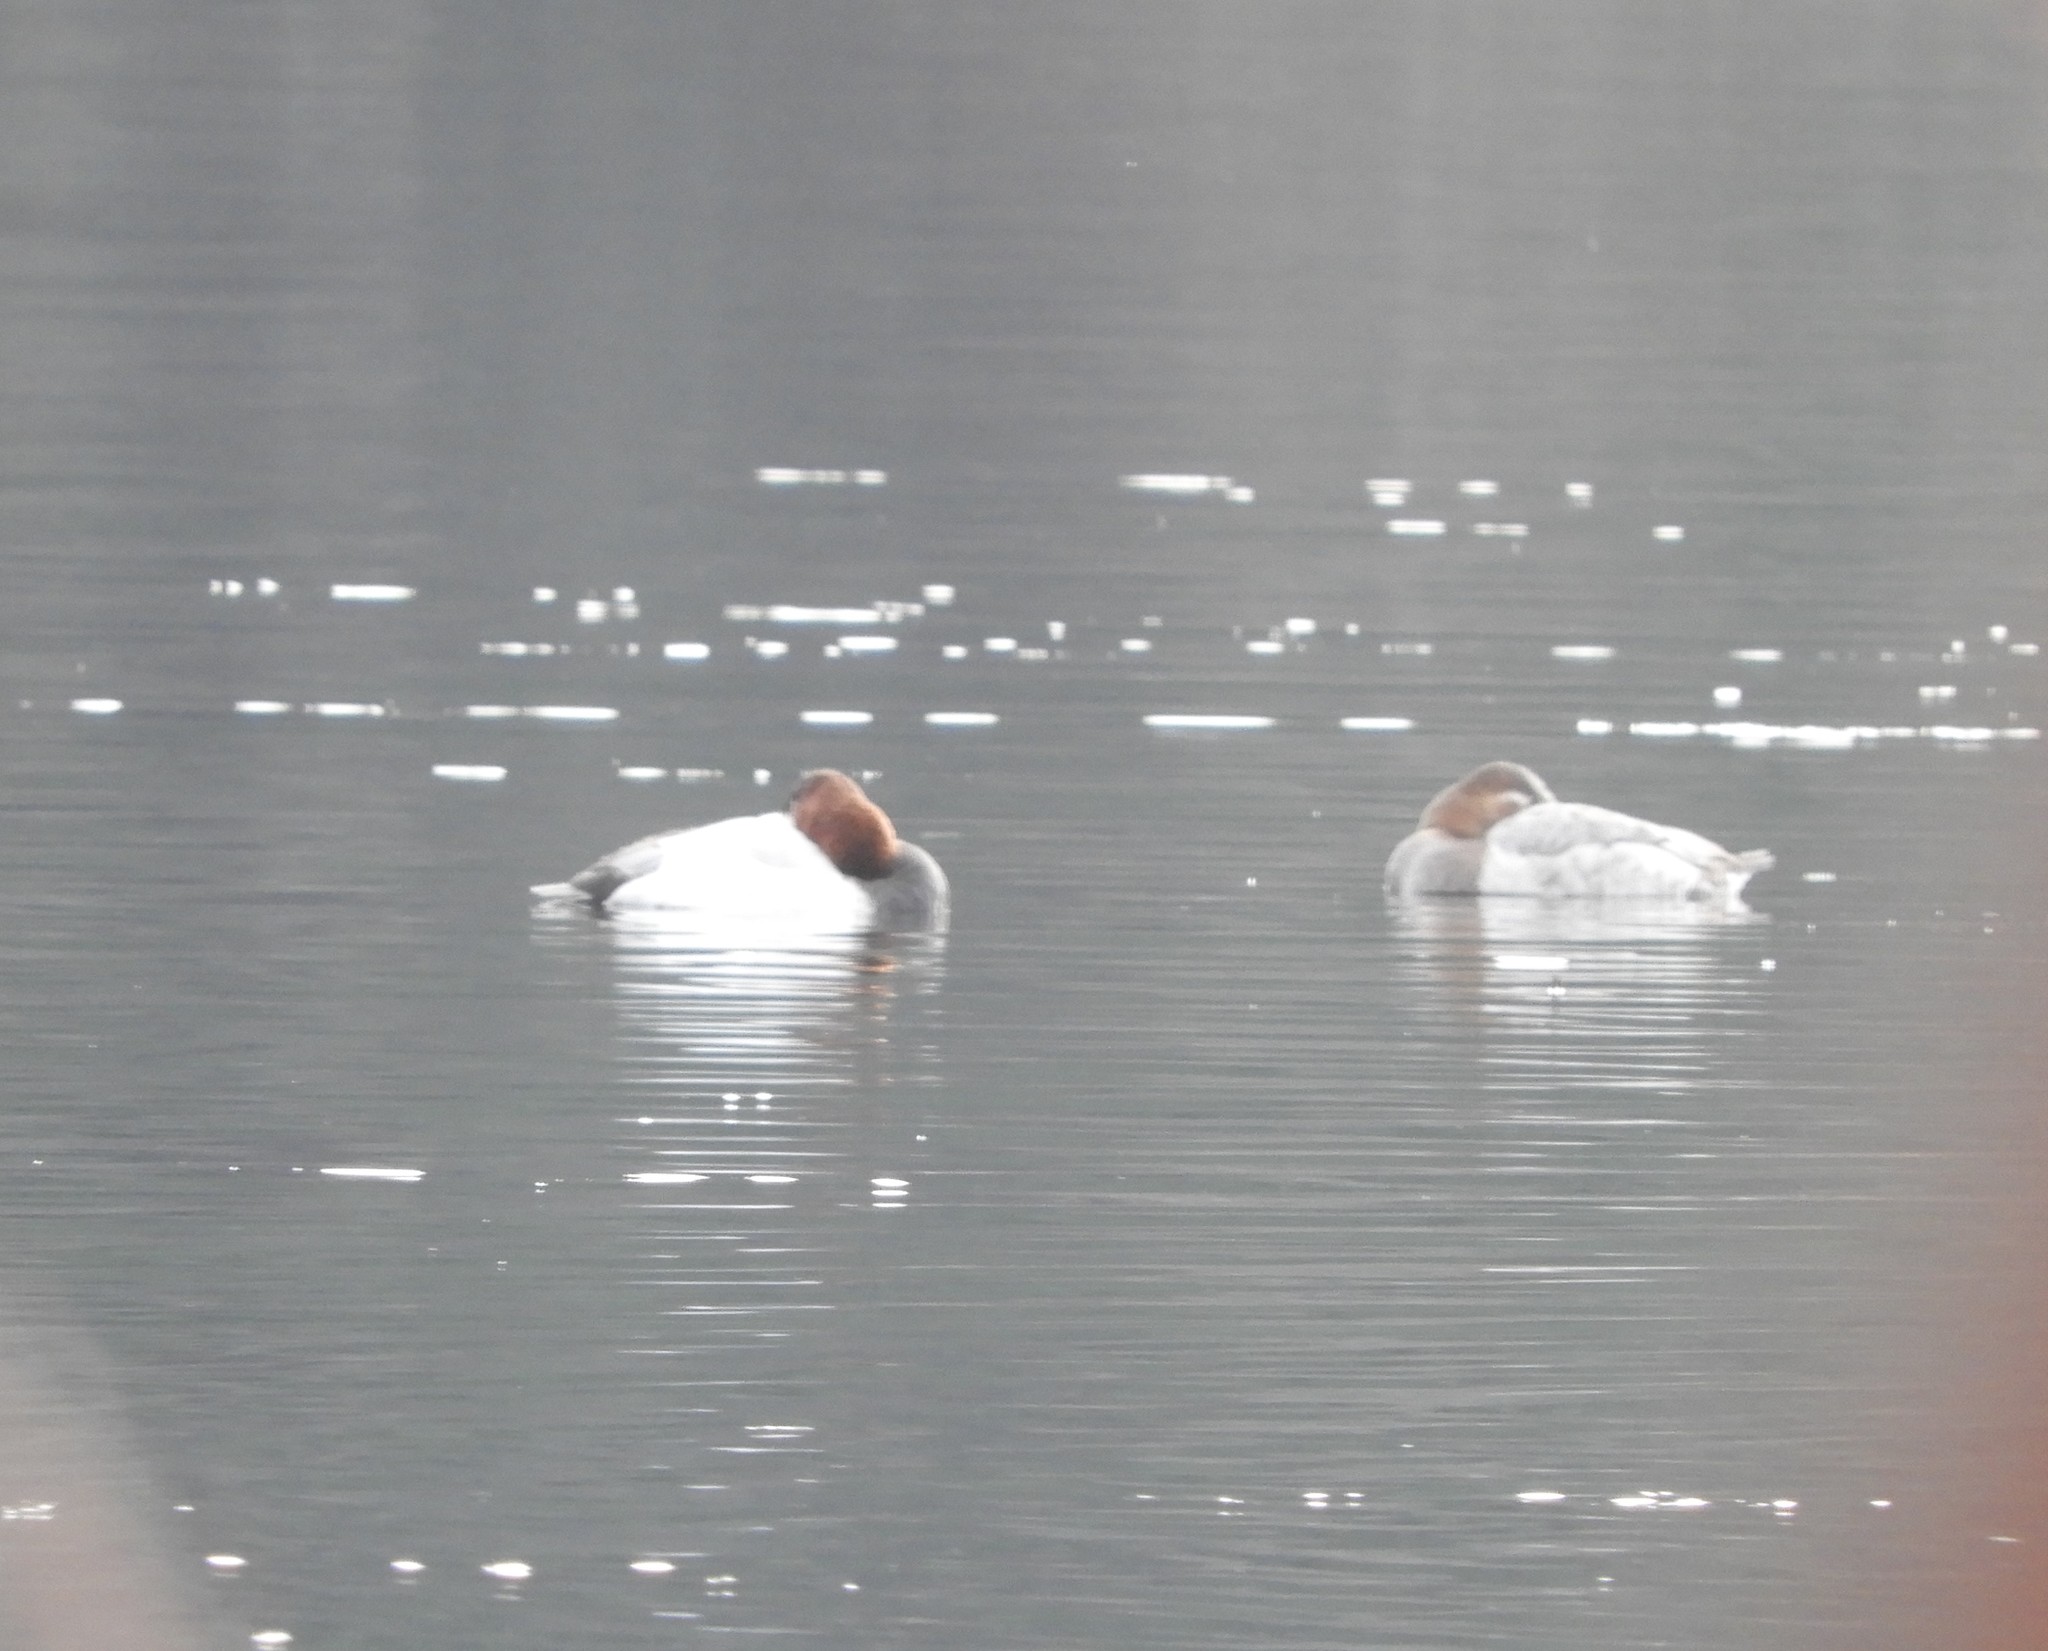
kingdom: Animalia
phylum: Chordata
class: Aves
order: Anseriformes
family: Anatidae
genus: Aythya
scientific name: Aythya valisineria
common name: Canvasback
